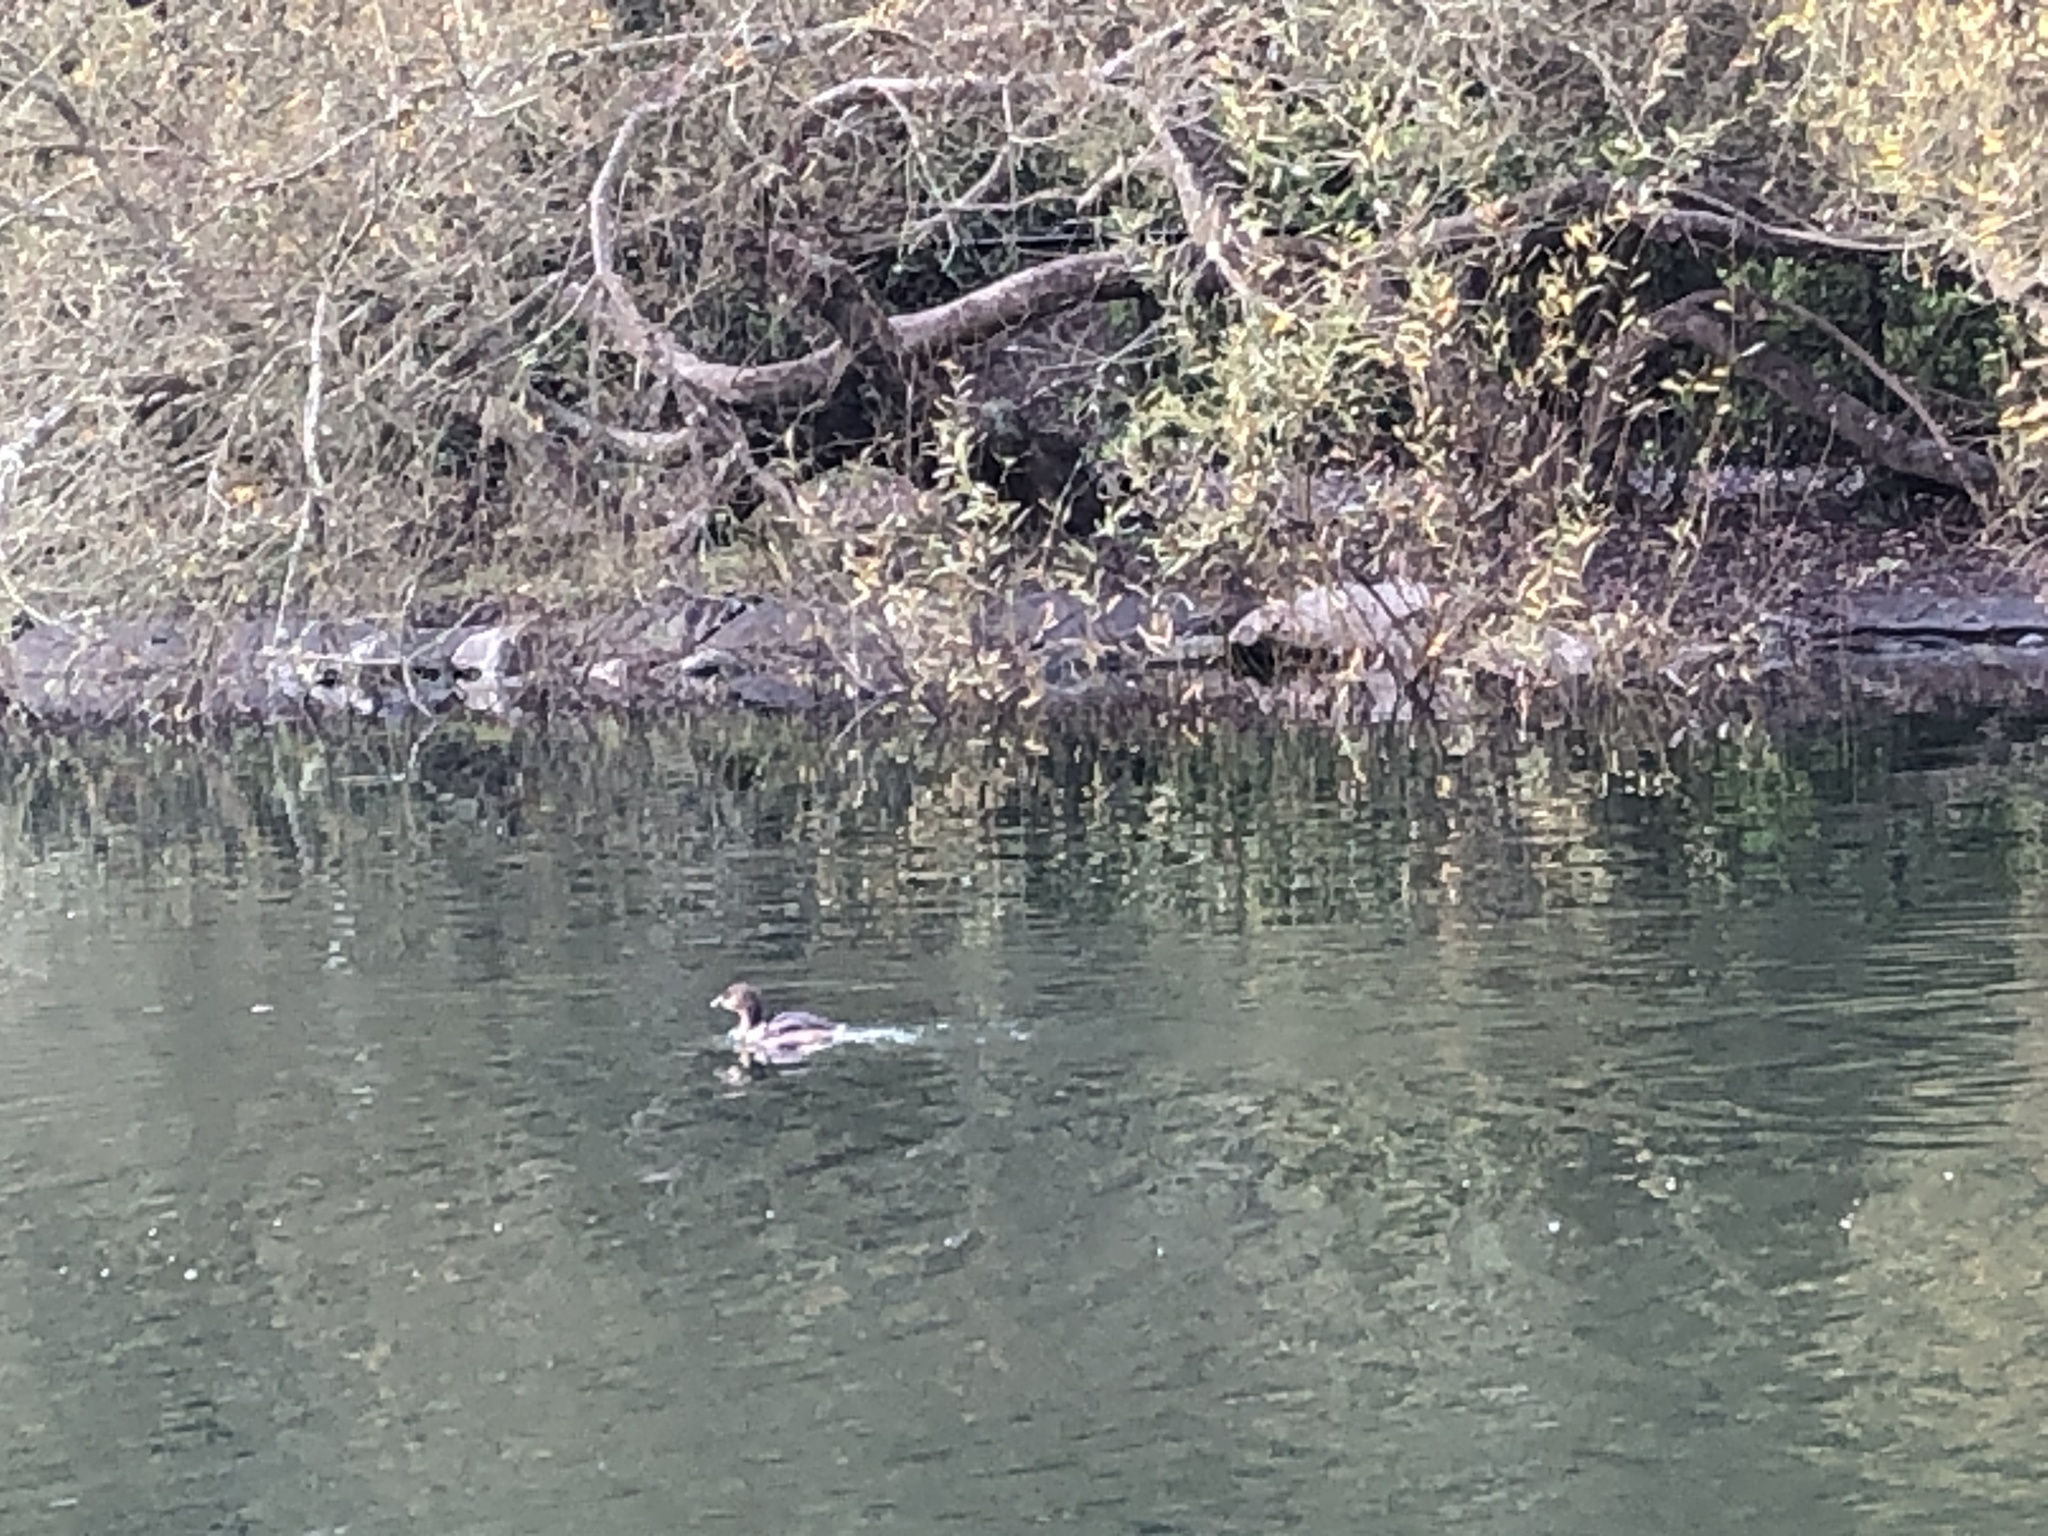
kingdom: Animalia
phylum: Chordata
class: Aves
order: Podicipediformes
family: Podicipedidae
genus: Podilymbus
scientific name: Podilymbus podiceps
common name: Pied-billed grebe
